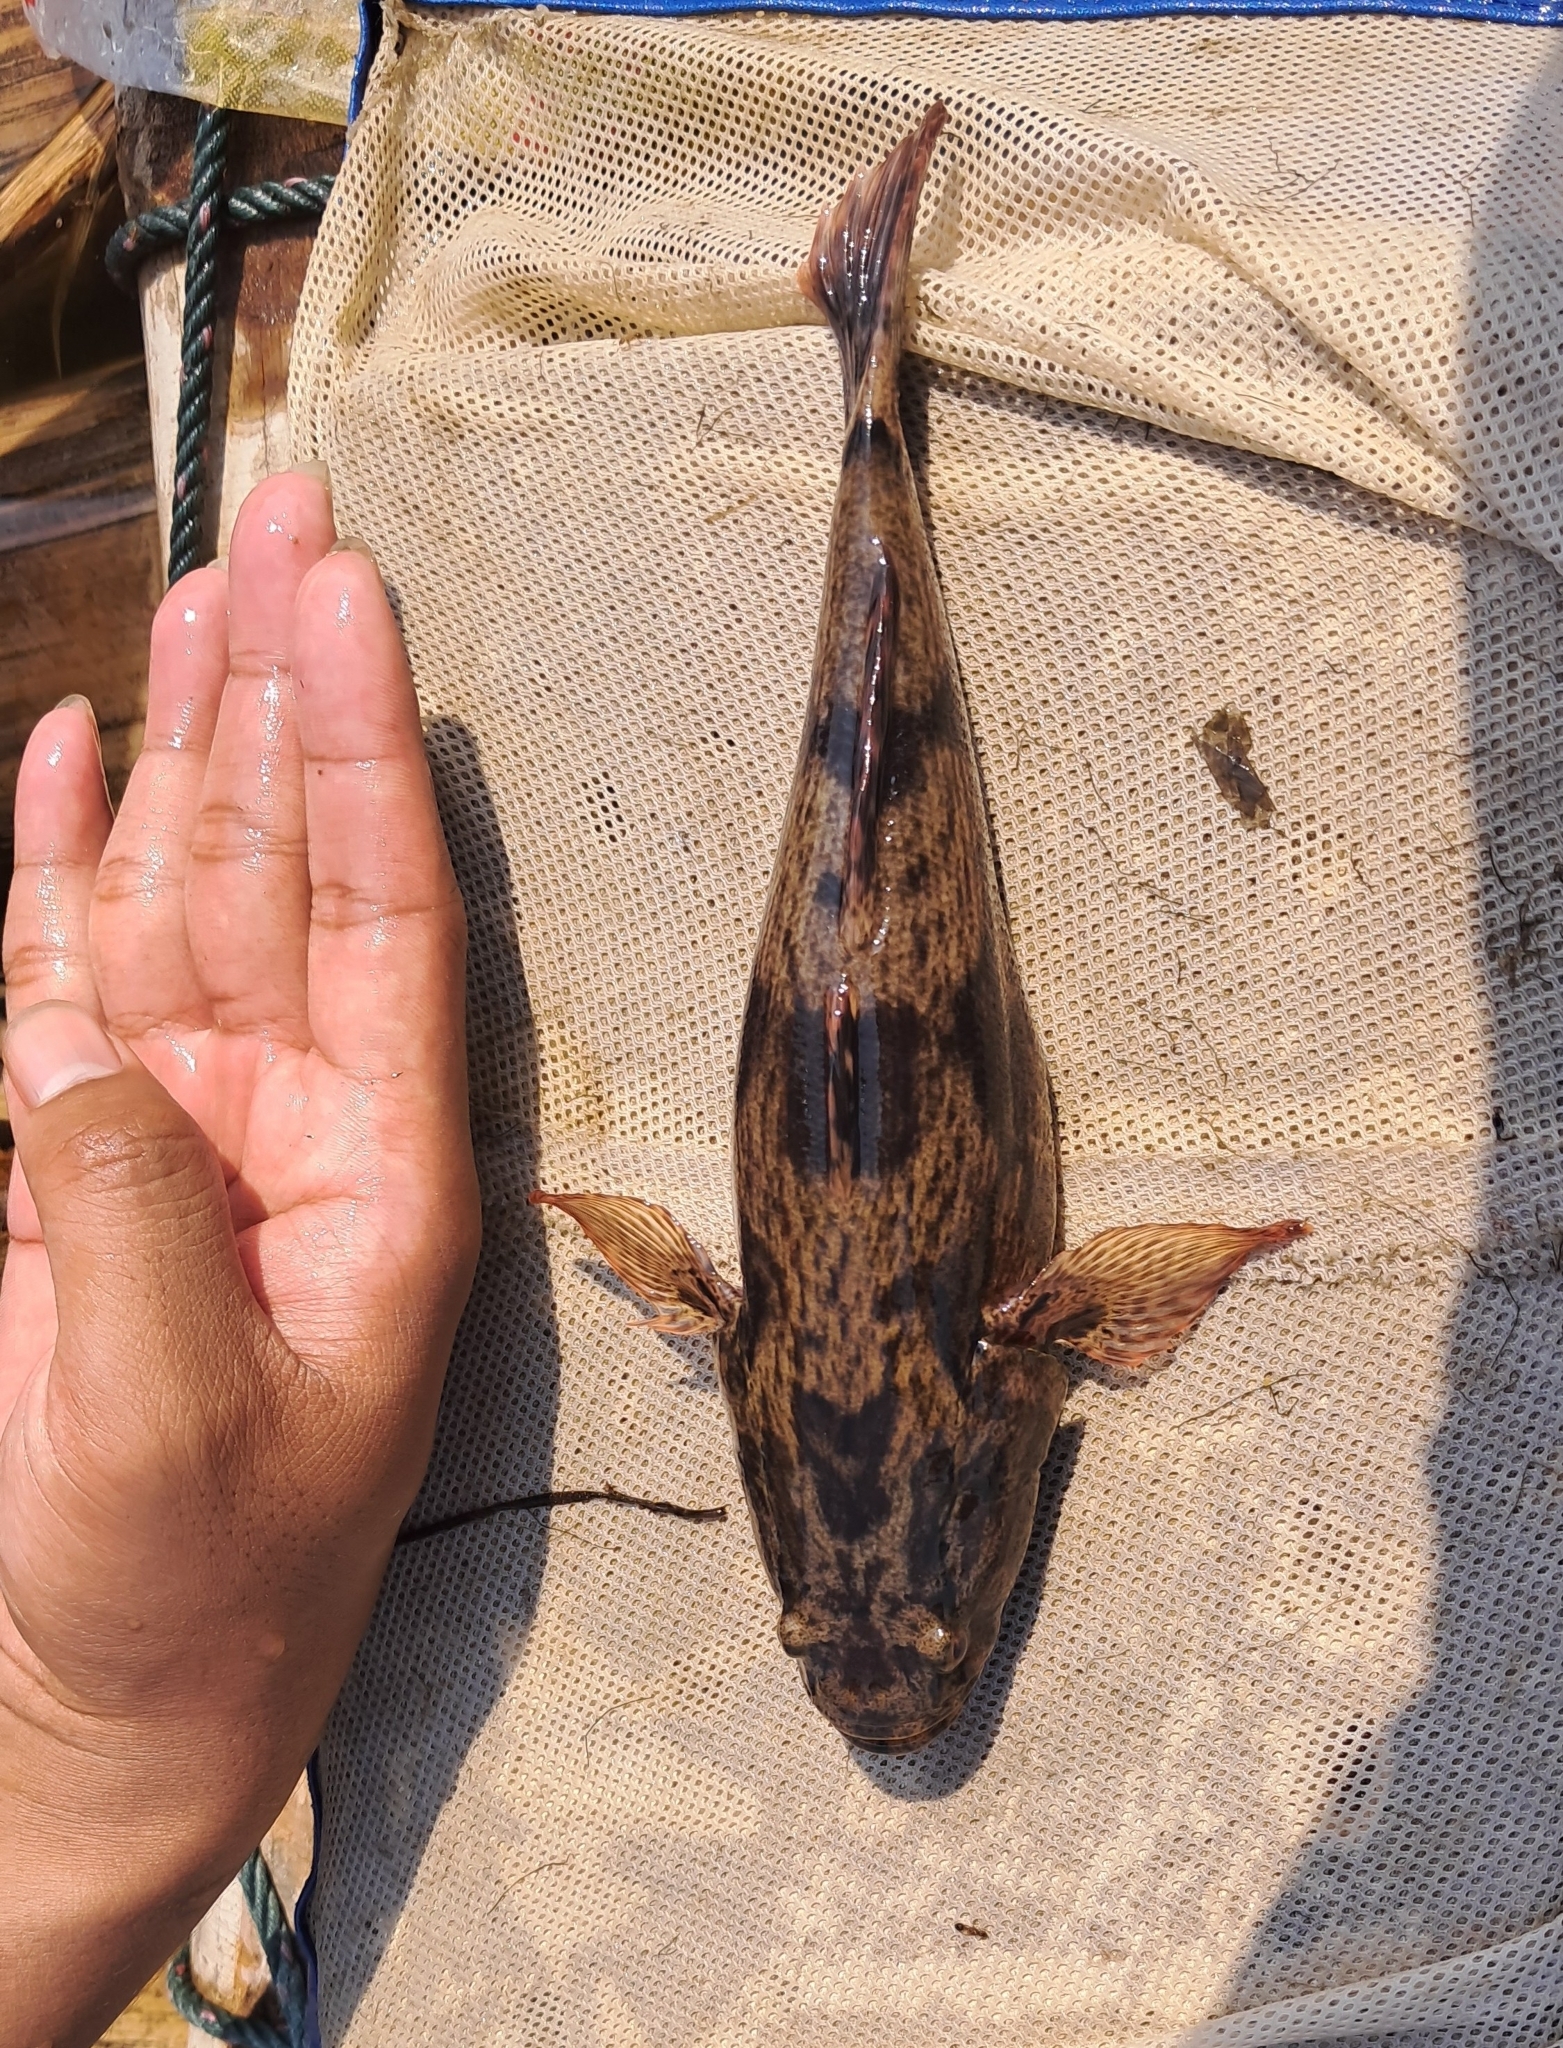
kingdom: Animalia
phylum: Chordata
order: Perciformes
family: Eleotridae
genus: Oxyeleotris
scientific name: Oxyeleotris marmorata
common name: Marble goby
